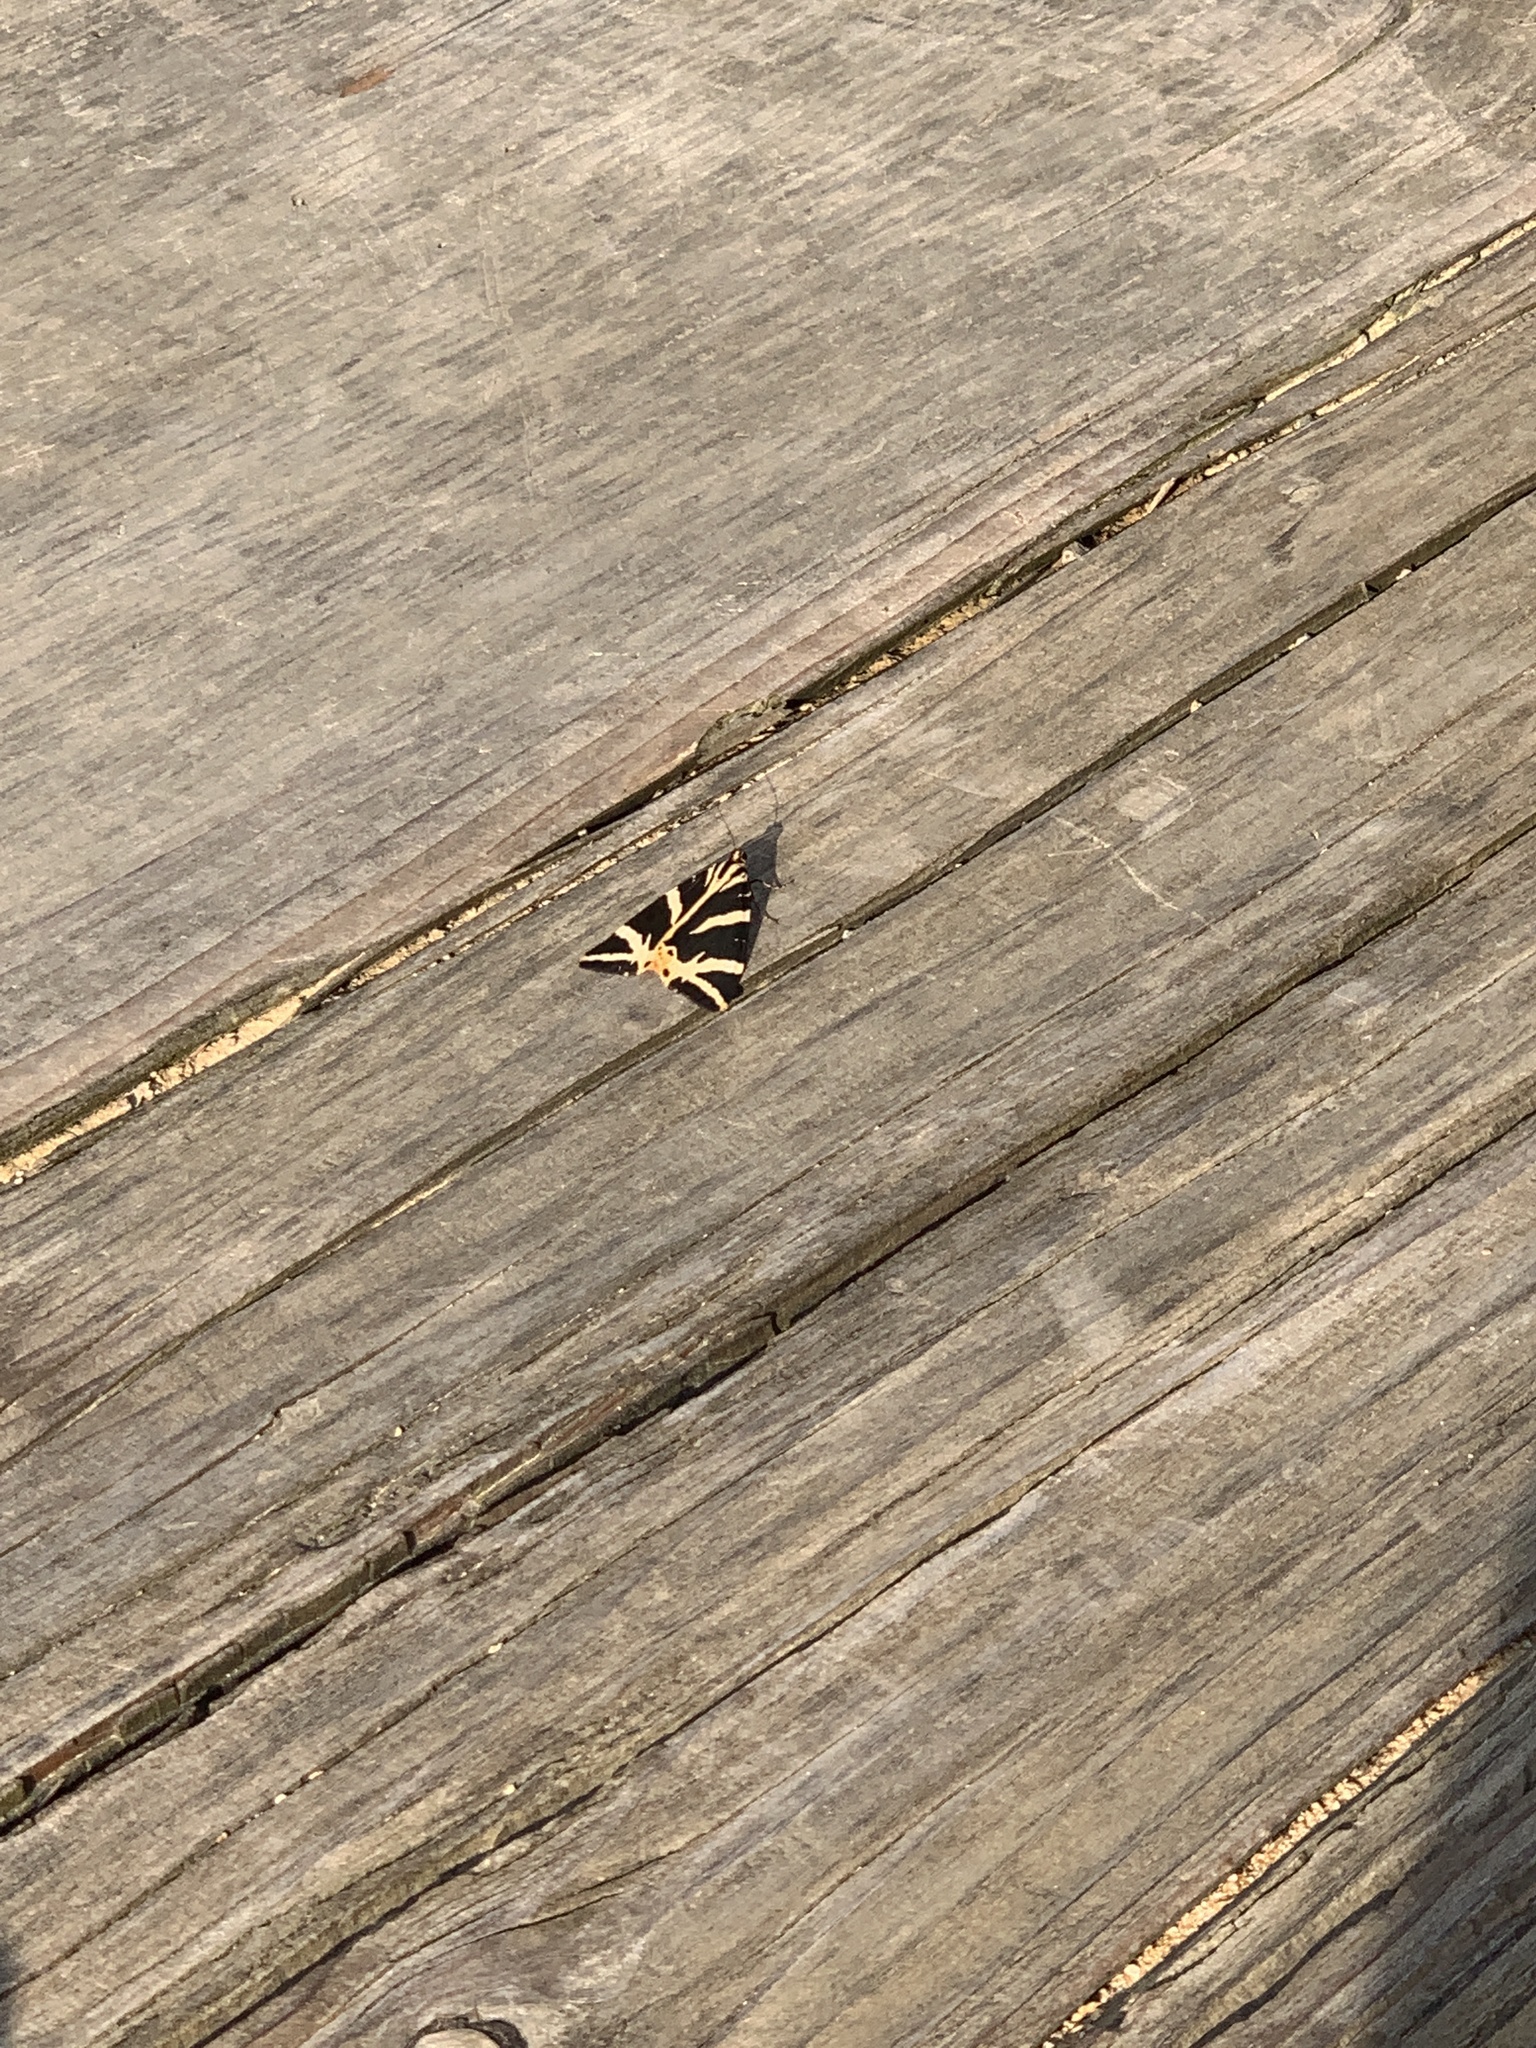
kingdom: Animalia
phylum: Arthropoda
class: Insecta
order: Lepidoptera
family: Erebidae
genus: Euplagia
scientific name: Euplagia quadripunctaria
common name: Jersey tiger
